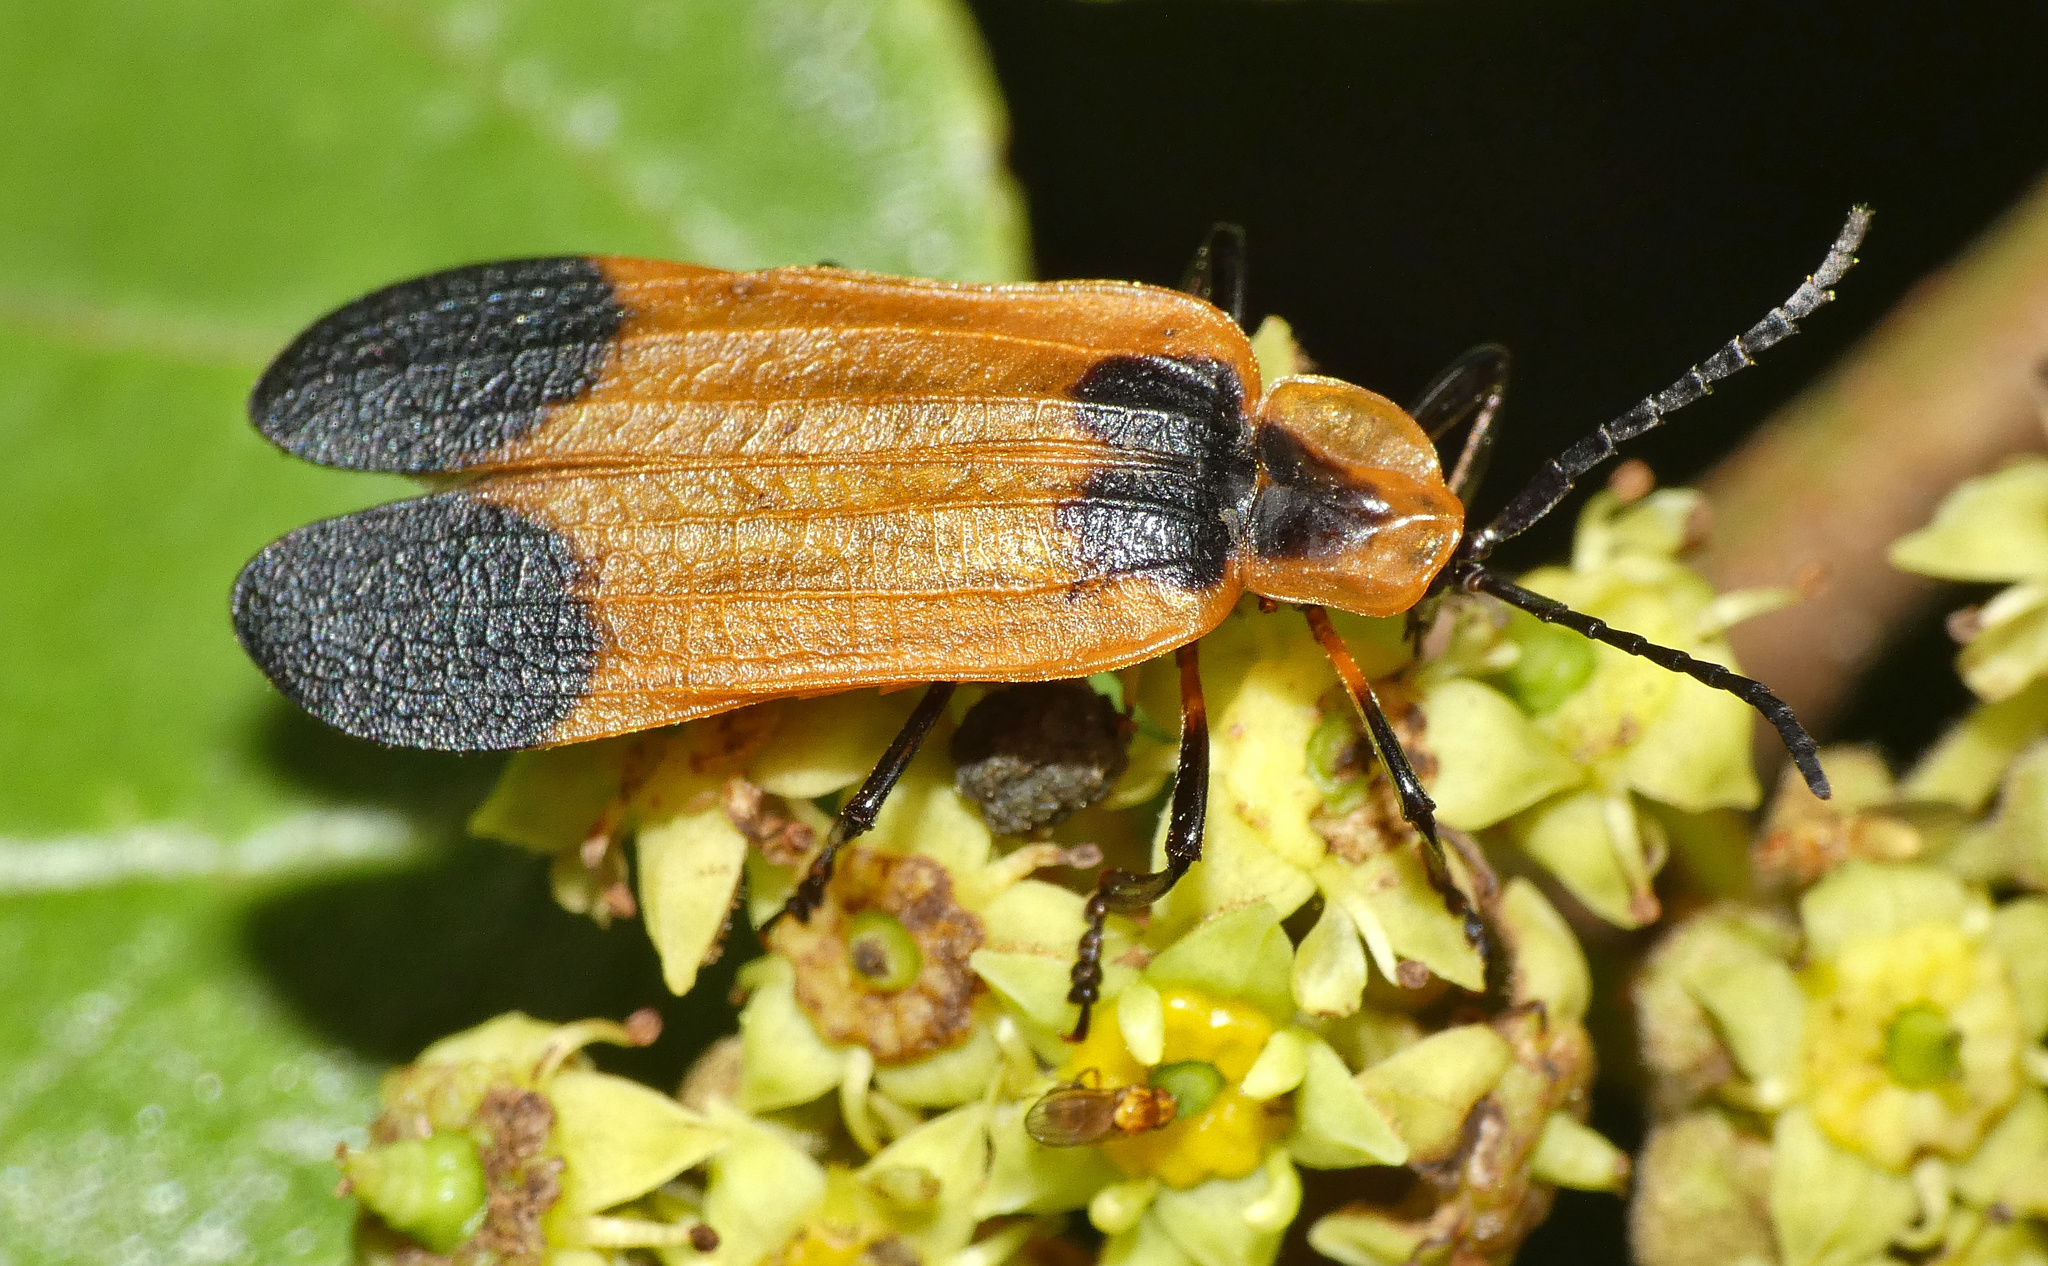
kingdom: Animalia
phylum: Arthropoda
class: Insecta
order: Coleoptera
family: Lycidae
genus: Lycus
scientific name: Lycus
